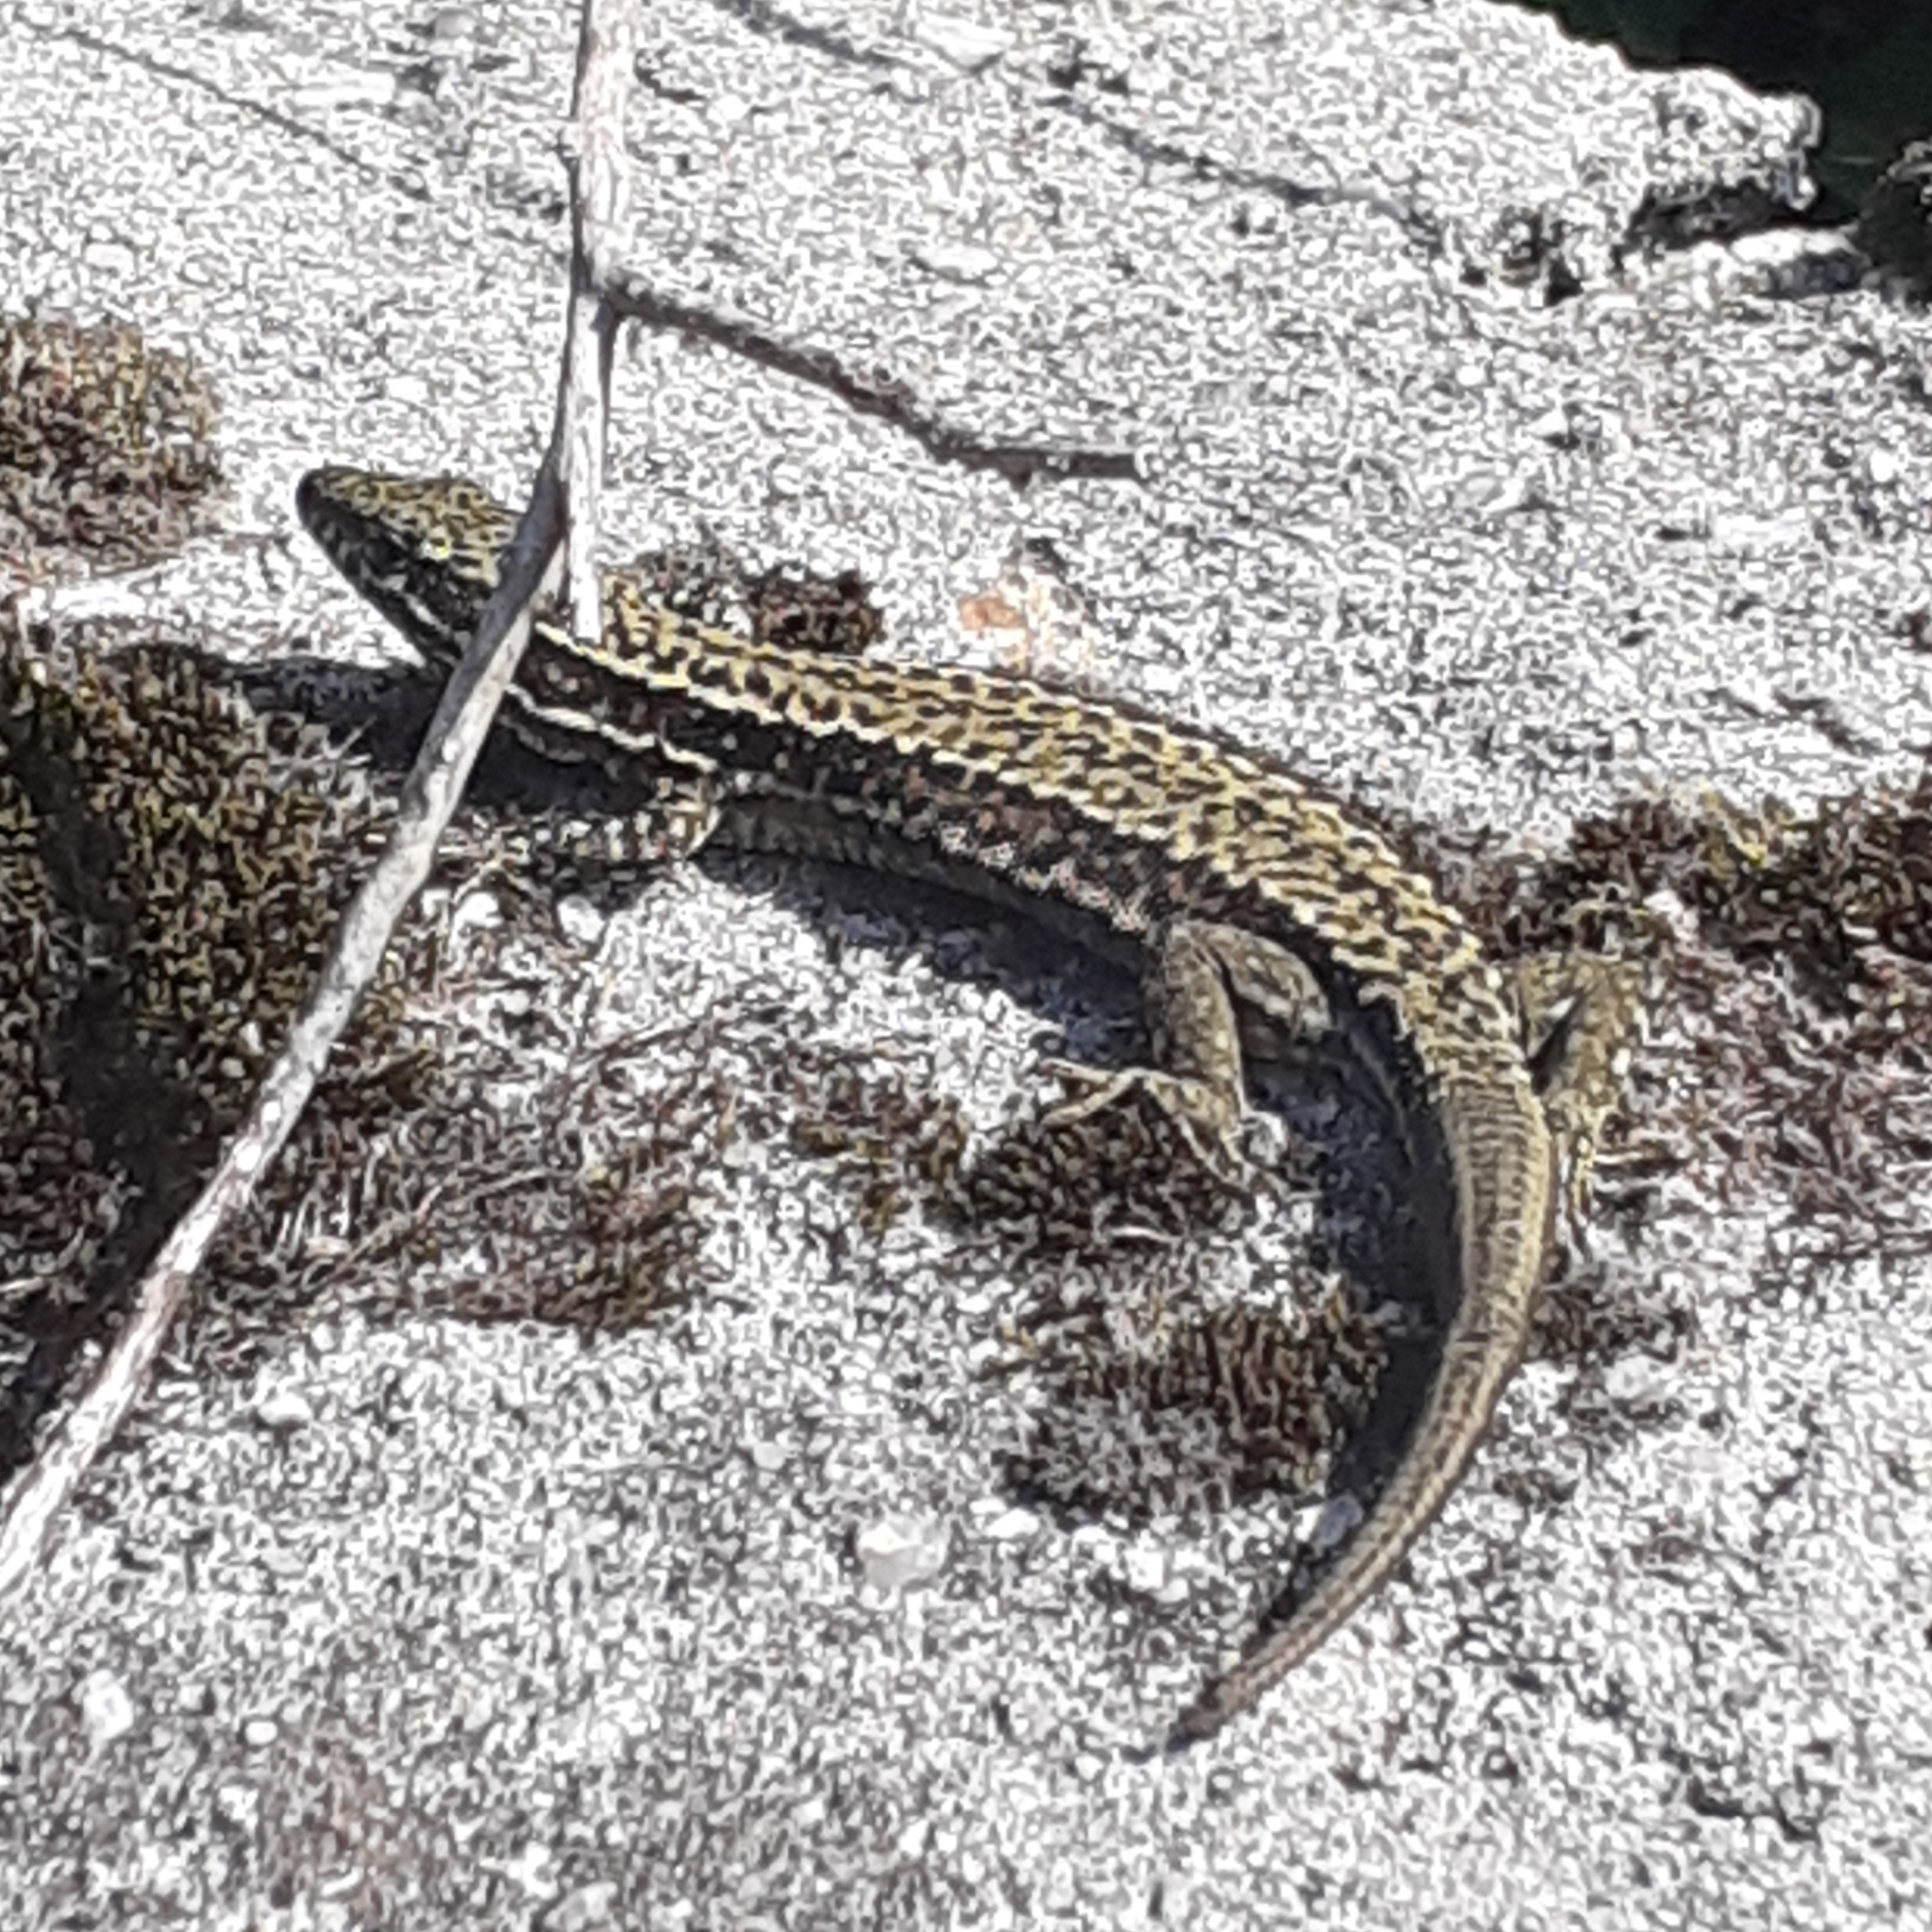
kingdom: Animalia
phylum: Chordata
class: Squamata
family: Lacertidae
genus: Podarcis
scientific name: Podarcis muralis
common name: Common wall lizard
